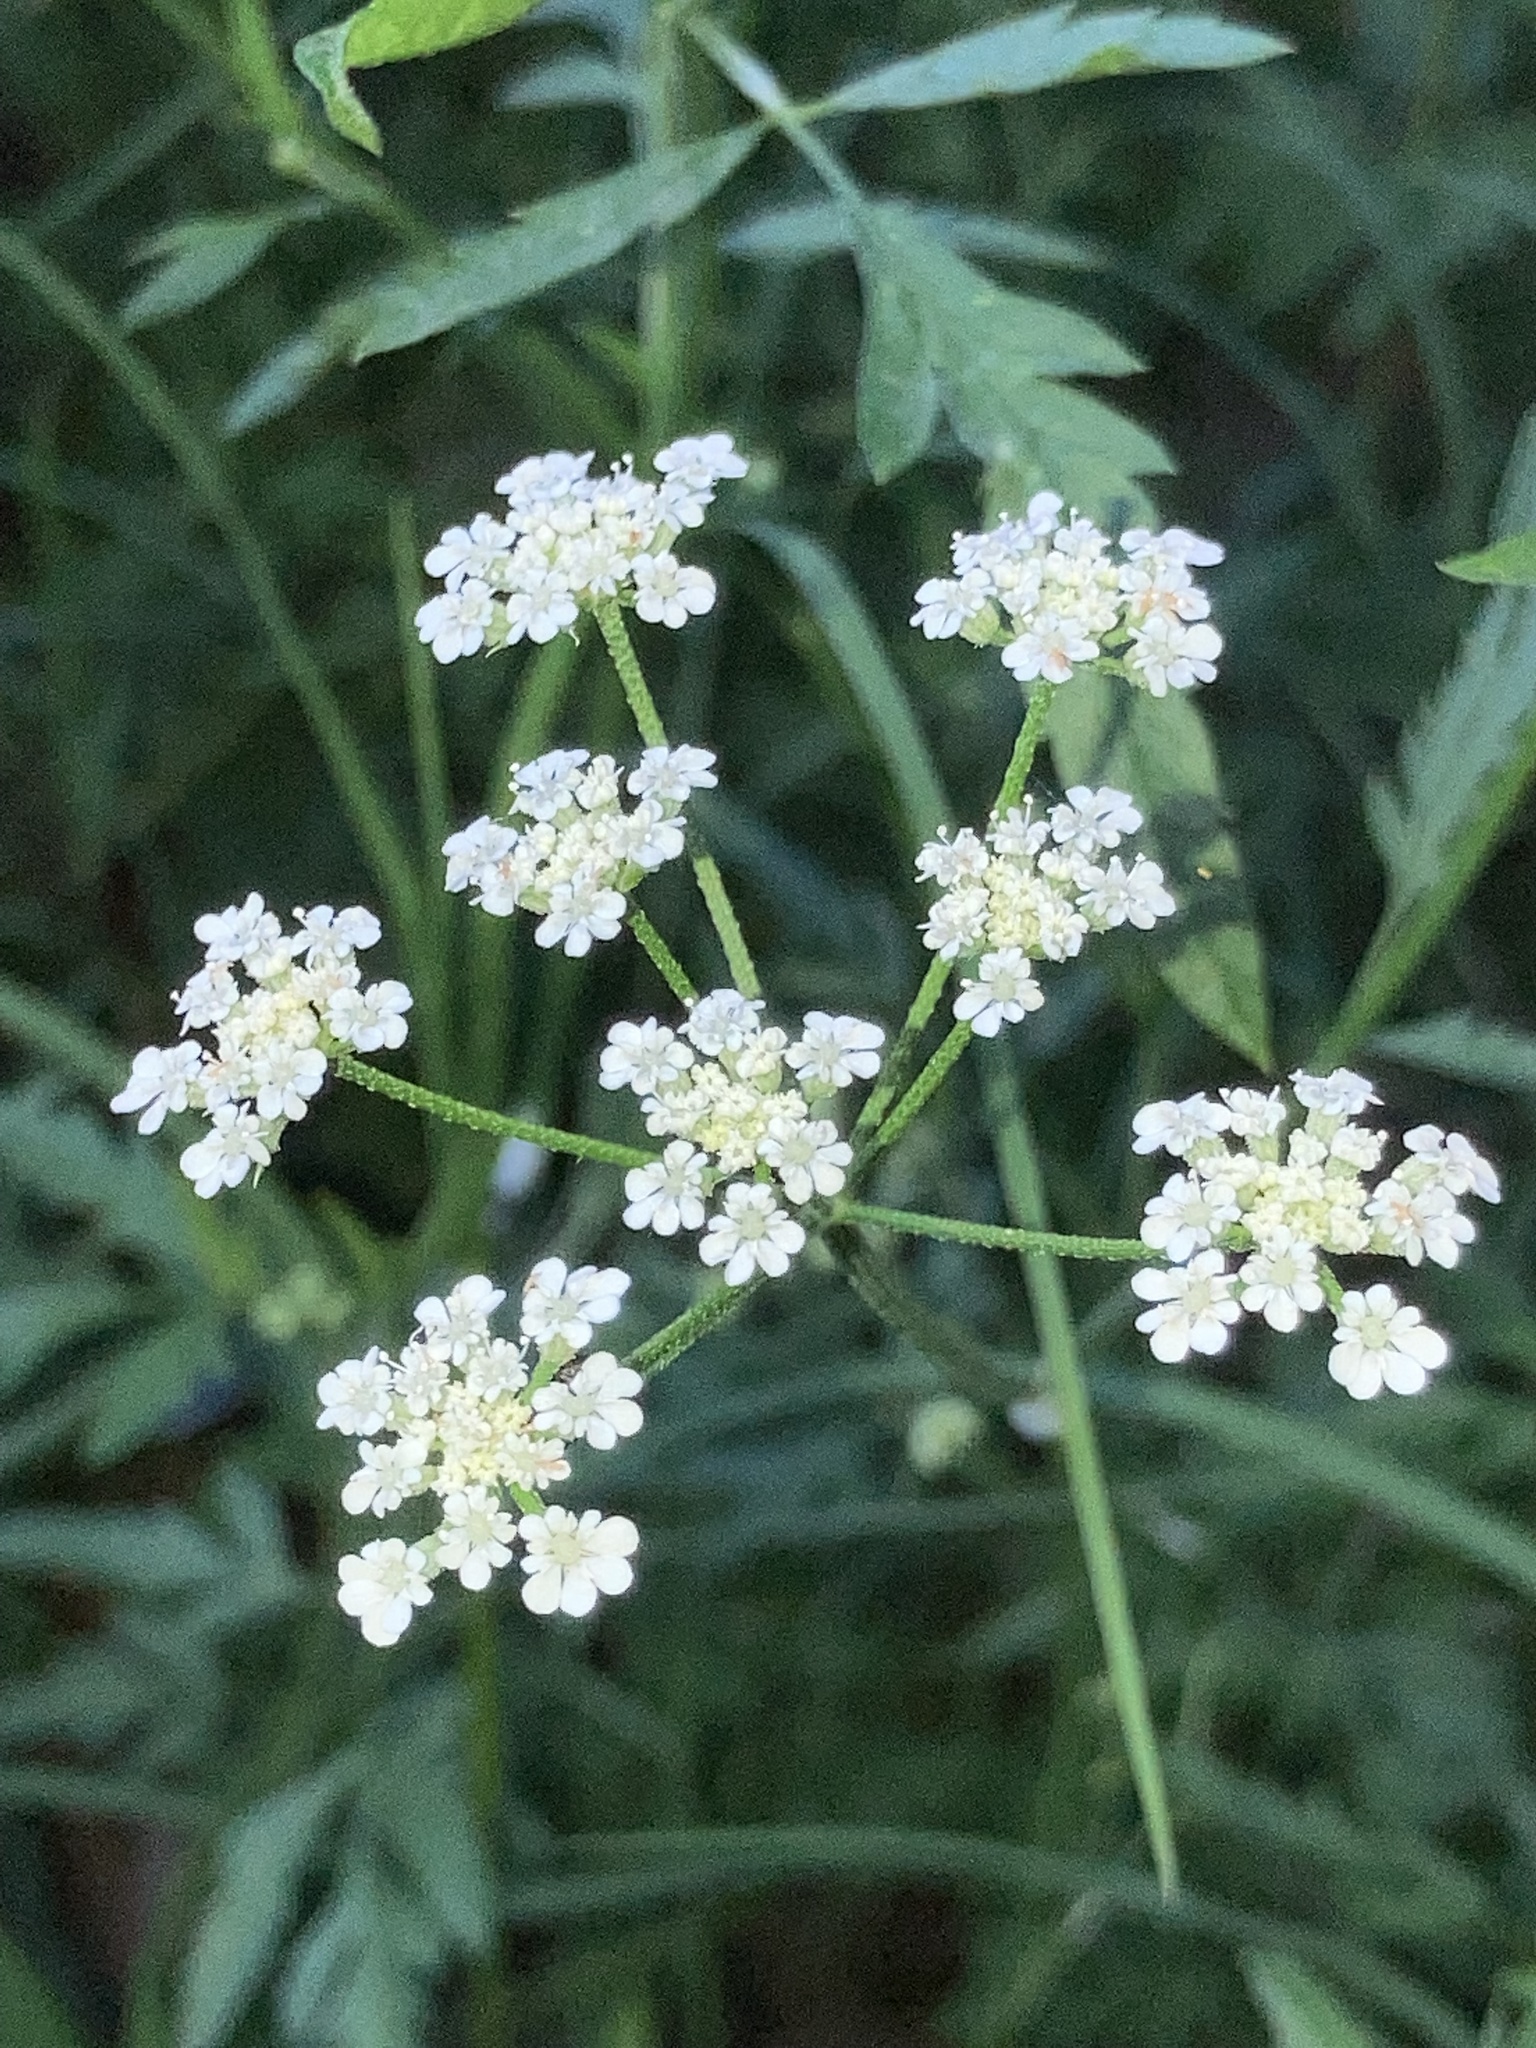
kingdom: Plantae
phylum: Tracheophyta
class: Magnoliopsida
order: Apiales
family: Apiaceae
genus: Torilis
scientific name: Torilis arvensis
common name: Spreading hedge-parsley
